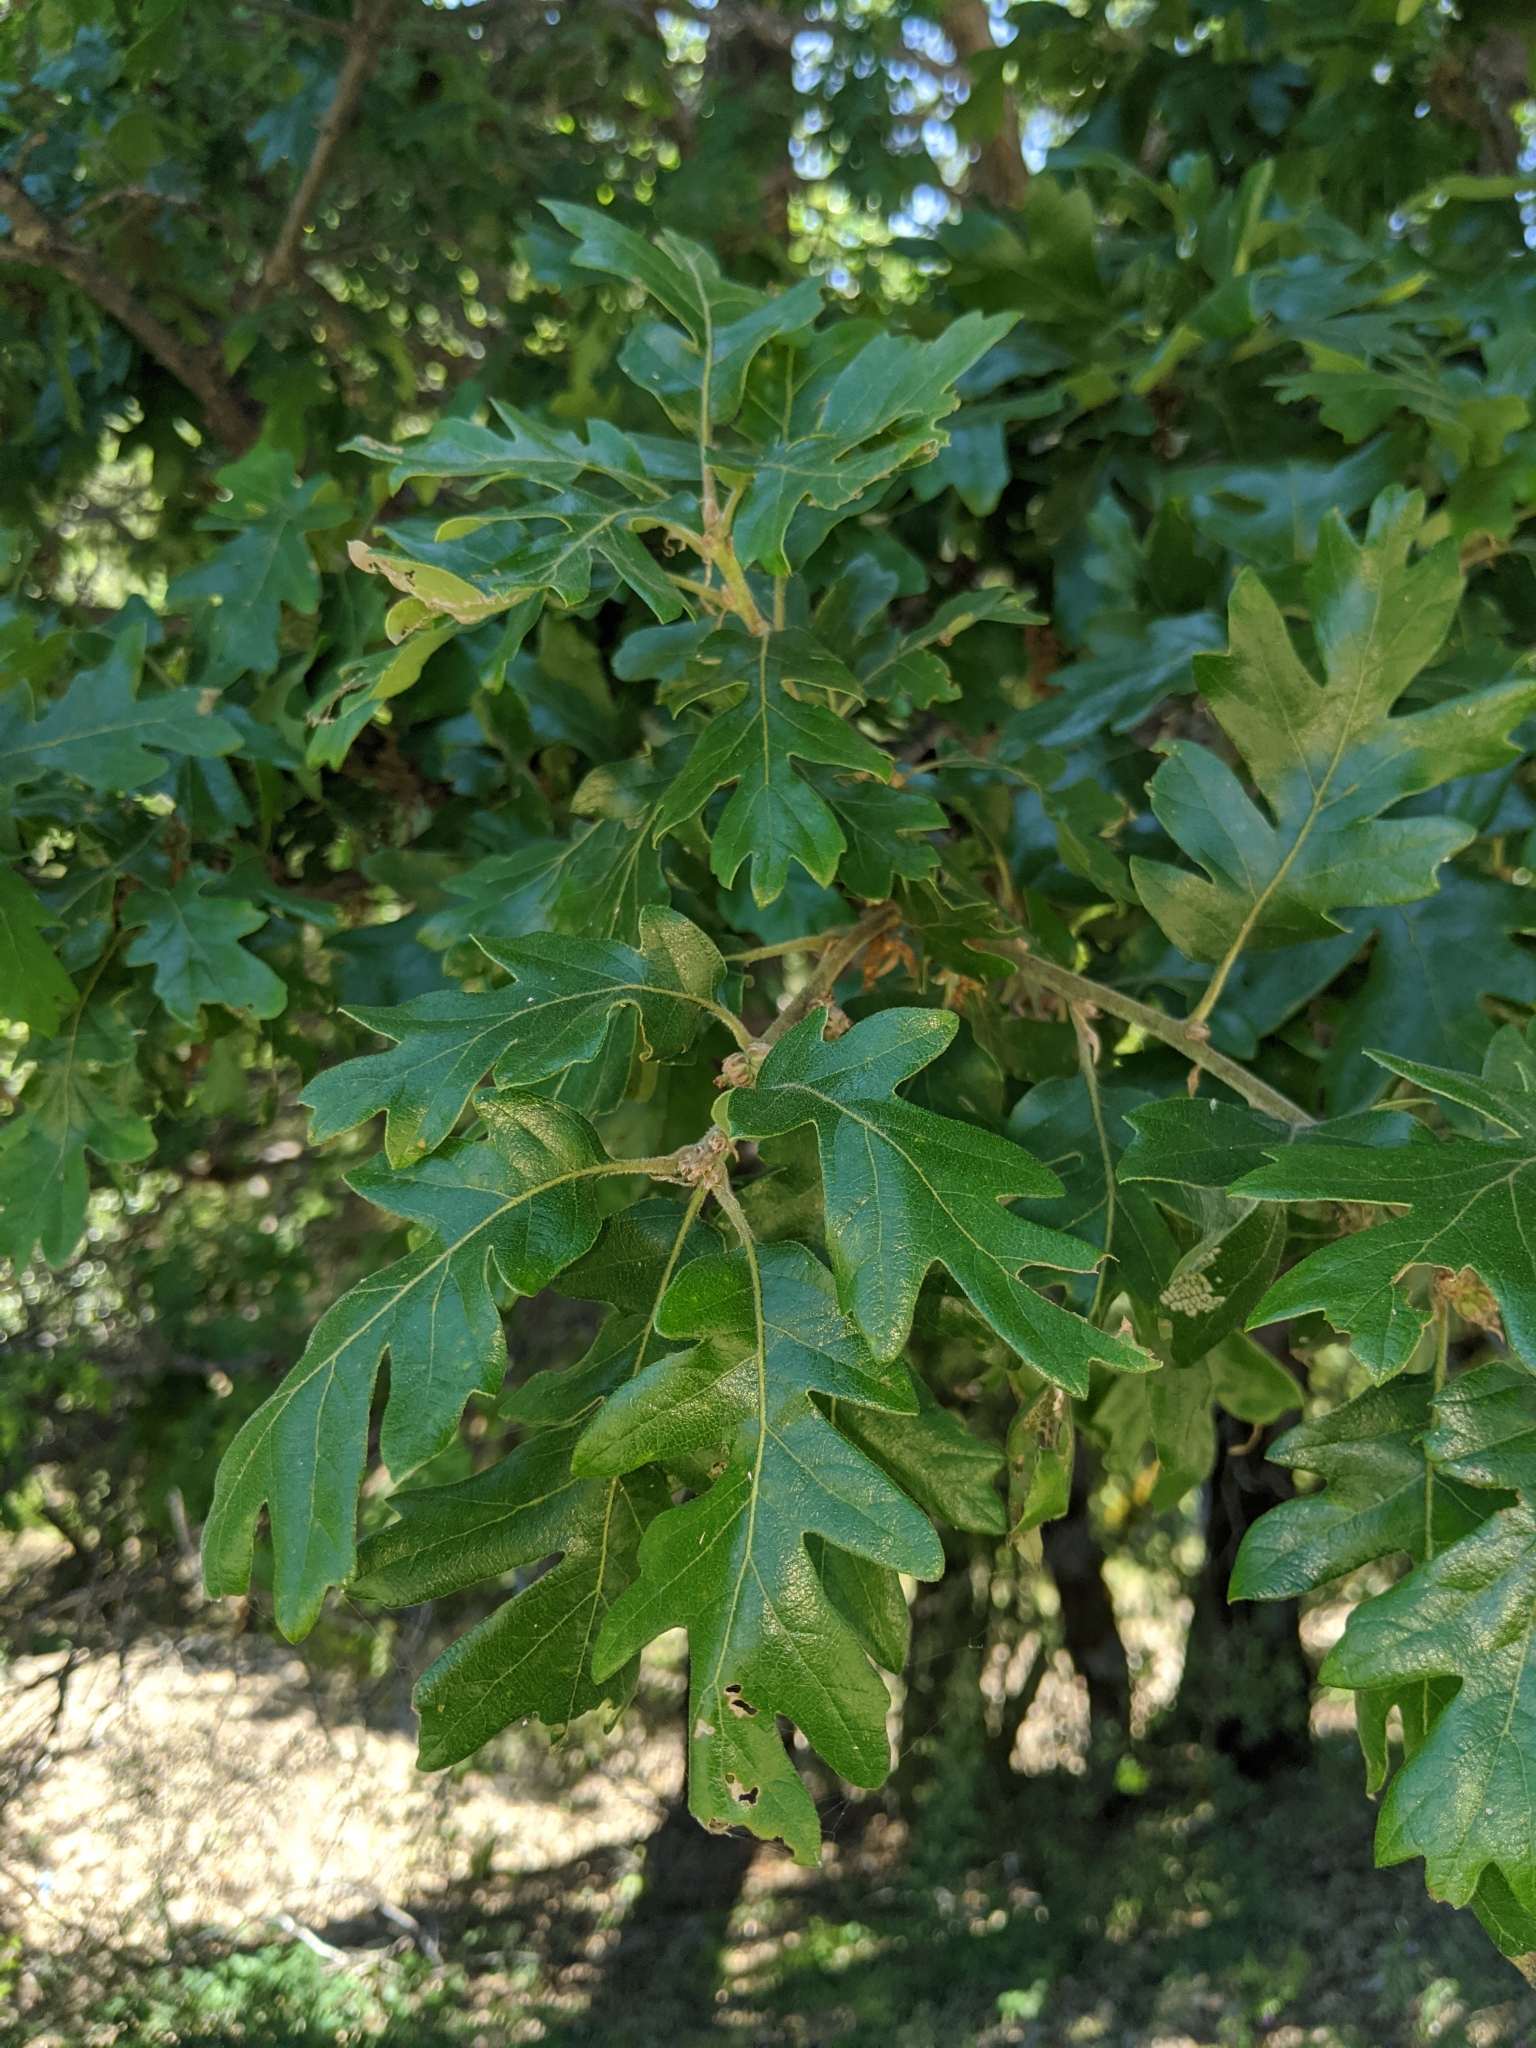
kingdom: Plantae
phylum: Tracheophyta
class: Magnoliopsida
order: Fagales
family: Fagaceae
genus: Quercus
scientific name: Quercus garryana
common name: Garry oak
